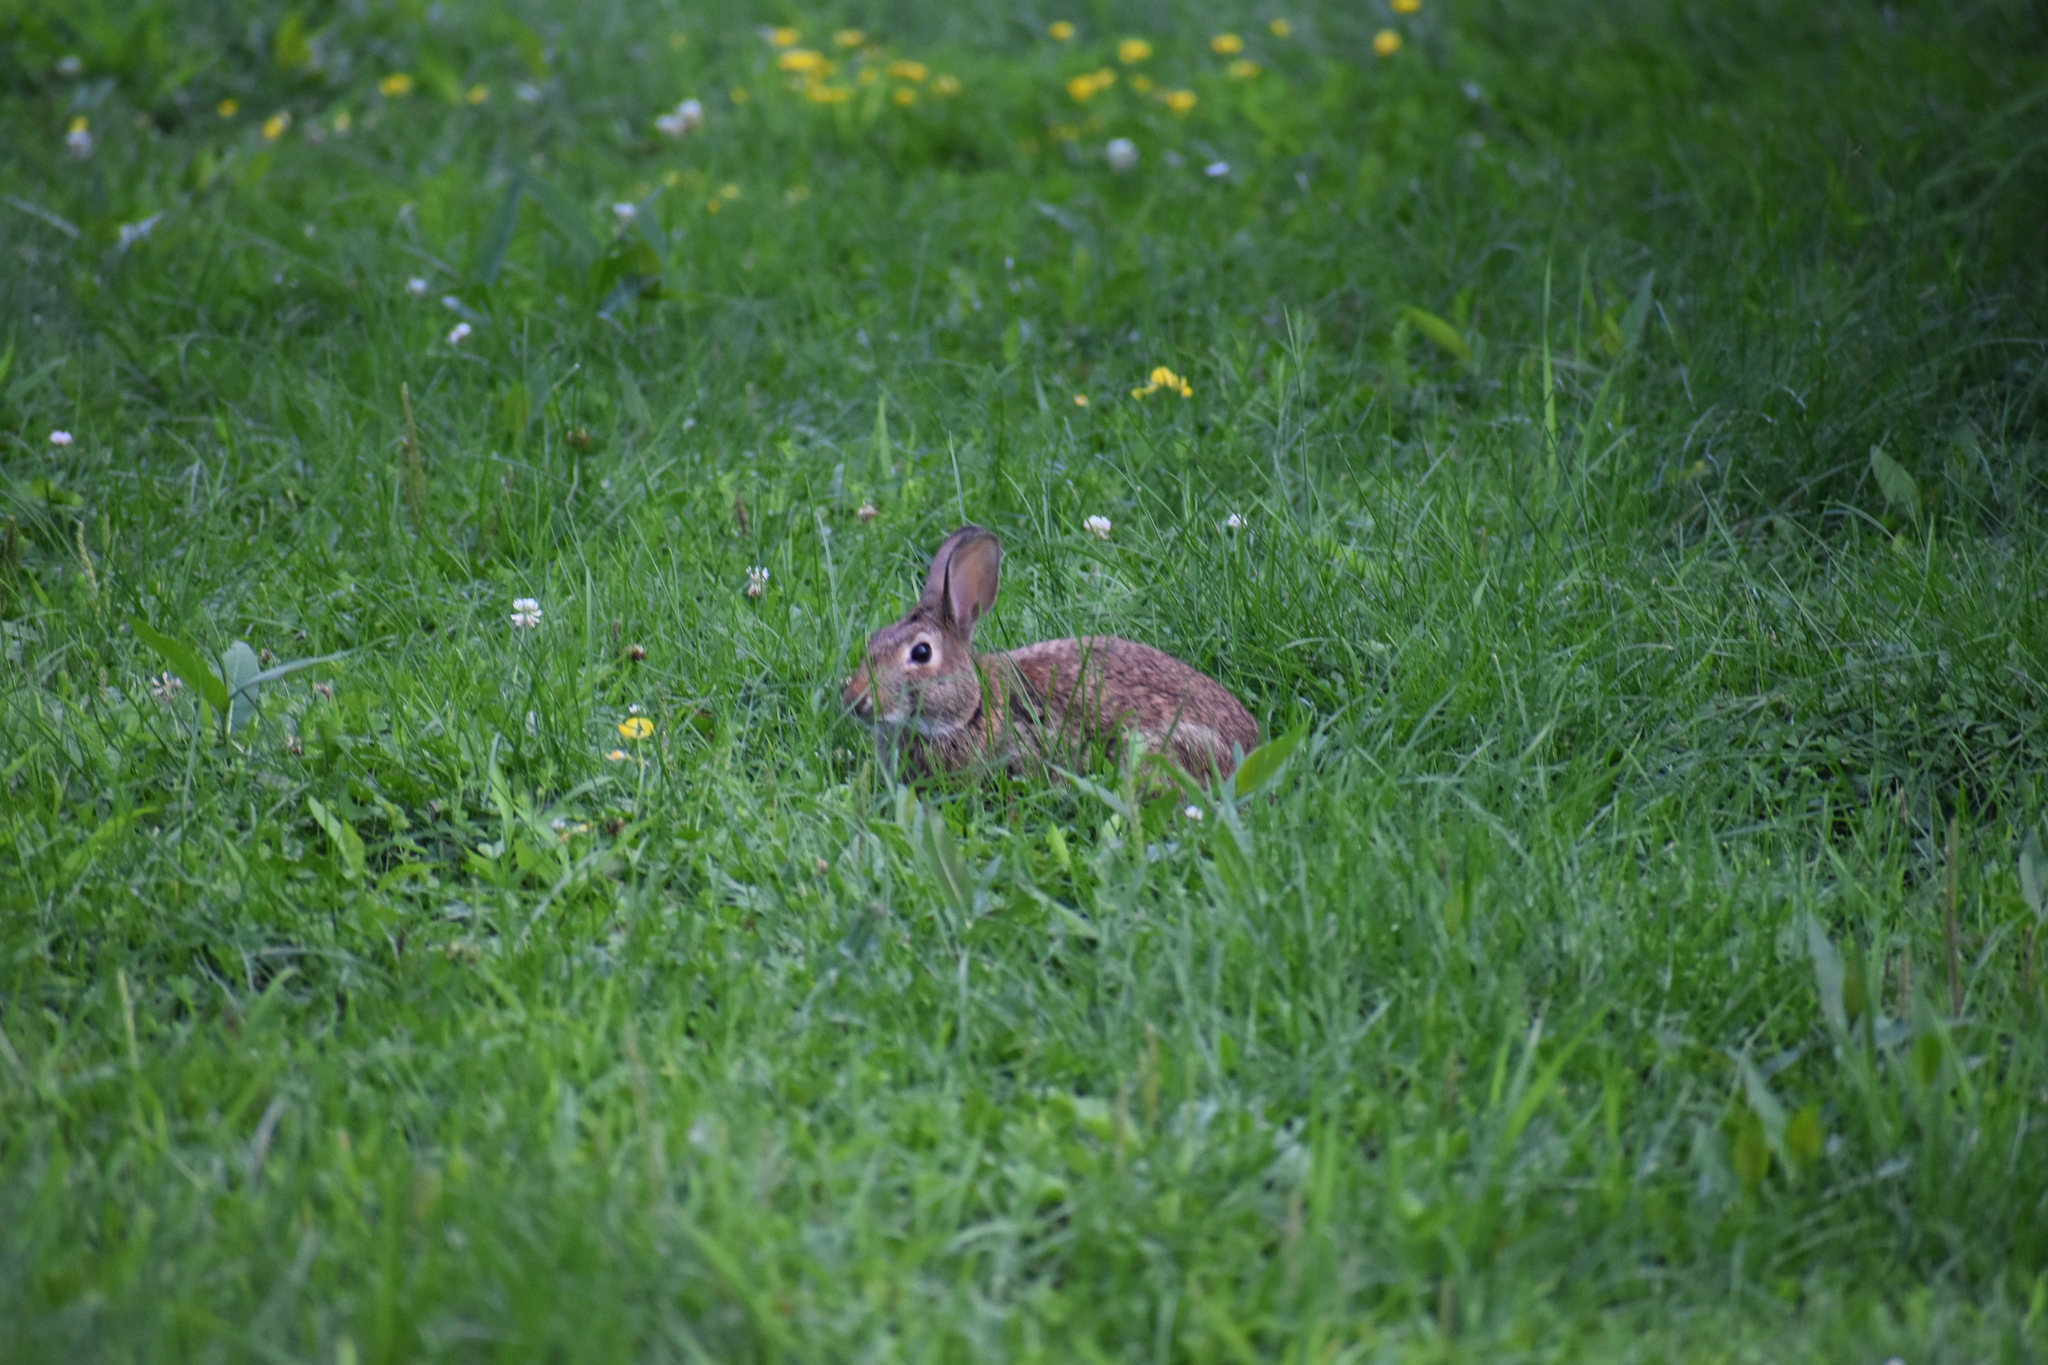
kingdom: Animalia
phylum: Chordata
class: Mammalia
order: Lagomorpha
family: Leporidae
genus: Sylvilagus
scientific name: Sylvilagus floridanus
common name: Eastern cottontail
